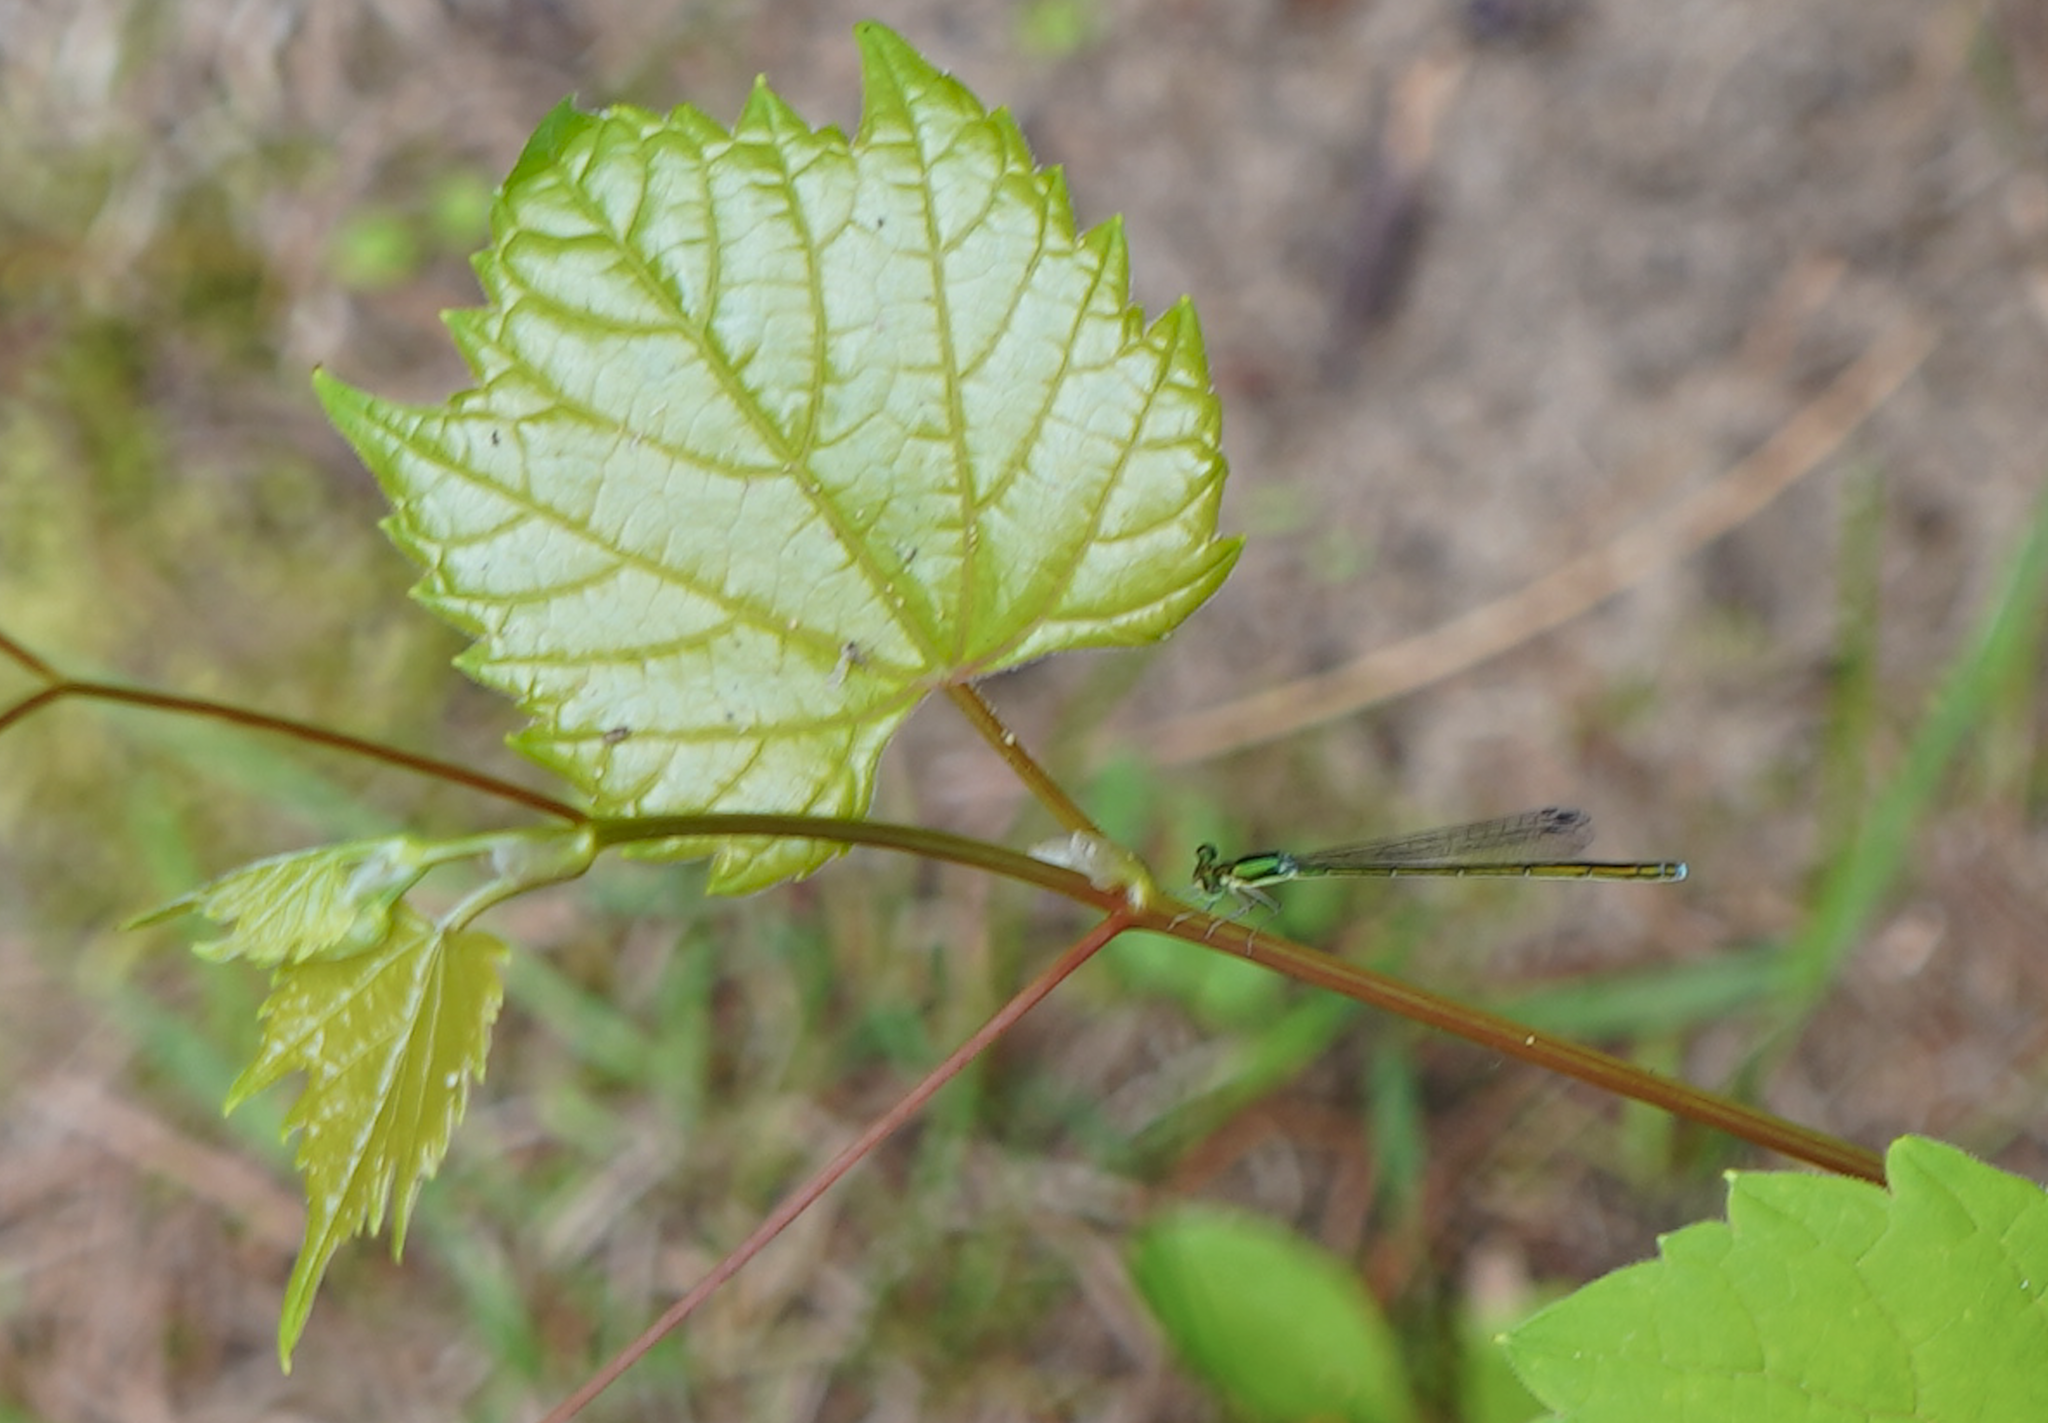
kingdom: Animalia
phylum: Arthropoda
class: Insecta
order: Odonata
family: Coenagrionidae
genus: Nehalennia
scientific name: Nehalennia irene
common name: Sedge sprite
